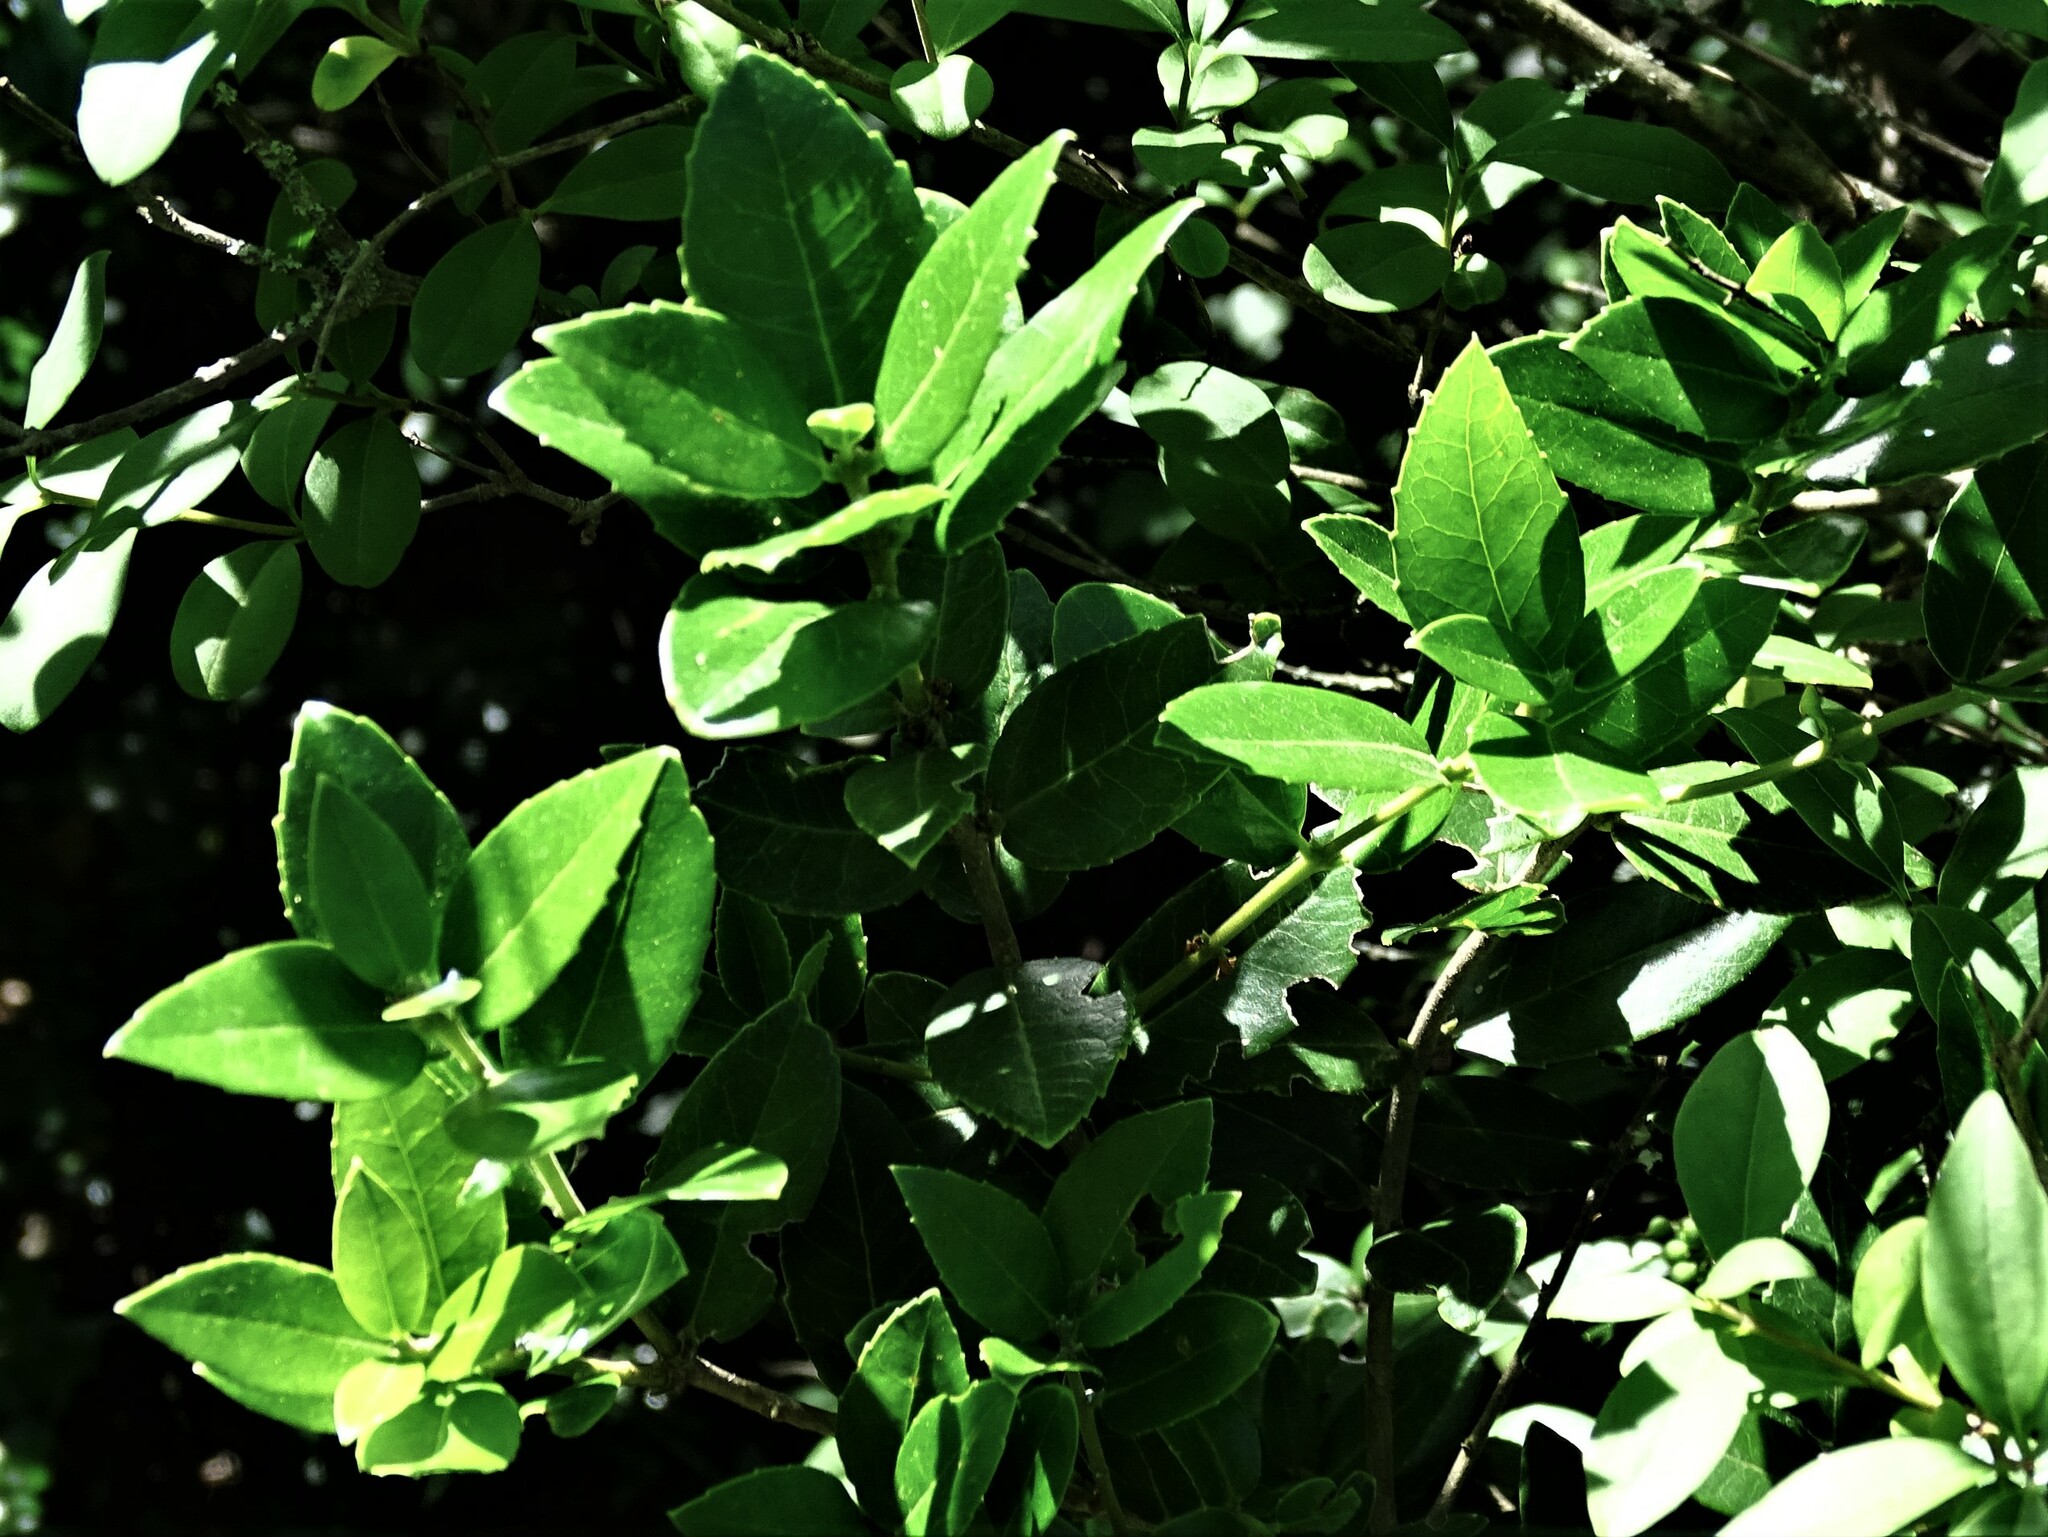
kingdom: Plantae
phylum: Tracheophyta
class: Magnoliopsida
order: Lamiales
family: Oleaceae
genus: Phillyrea
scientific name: Phillyrea latifolia
